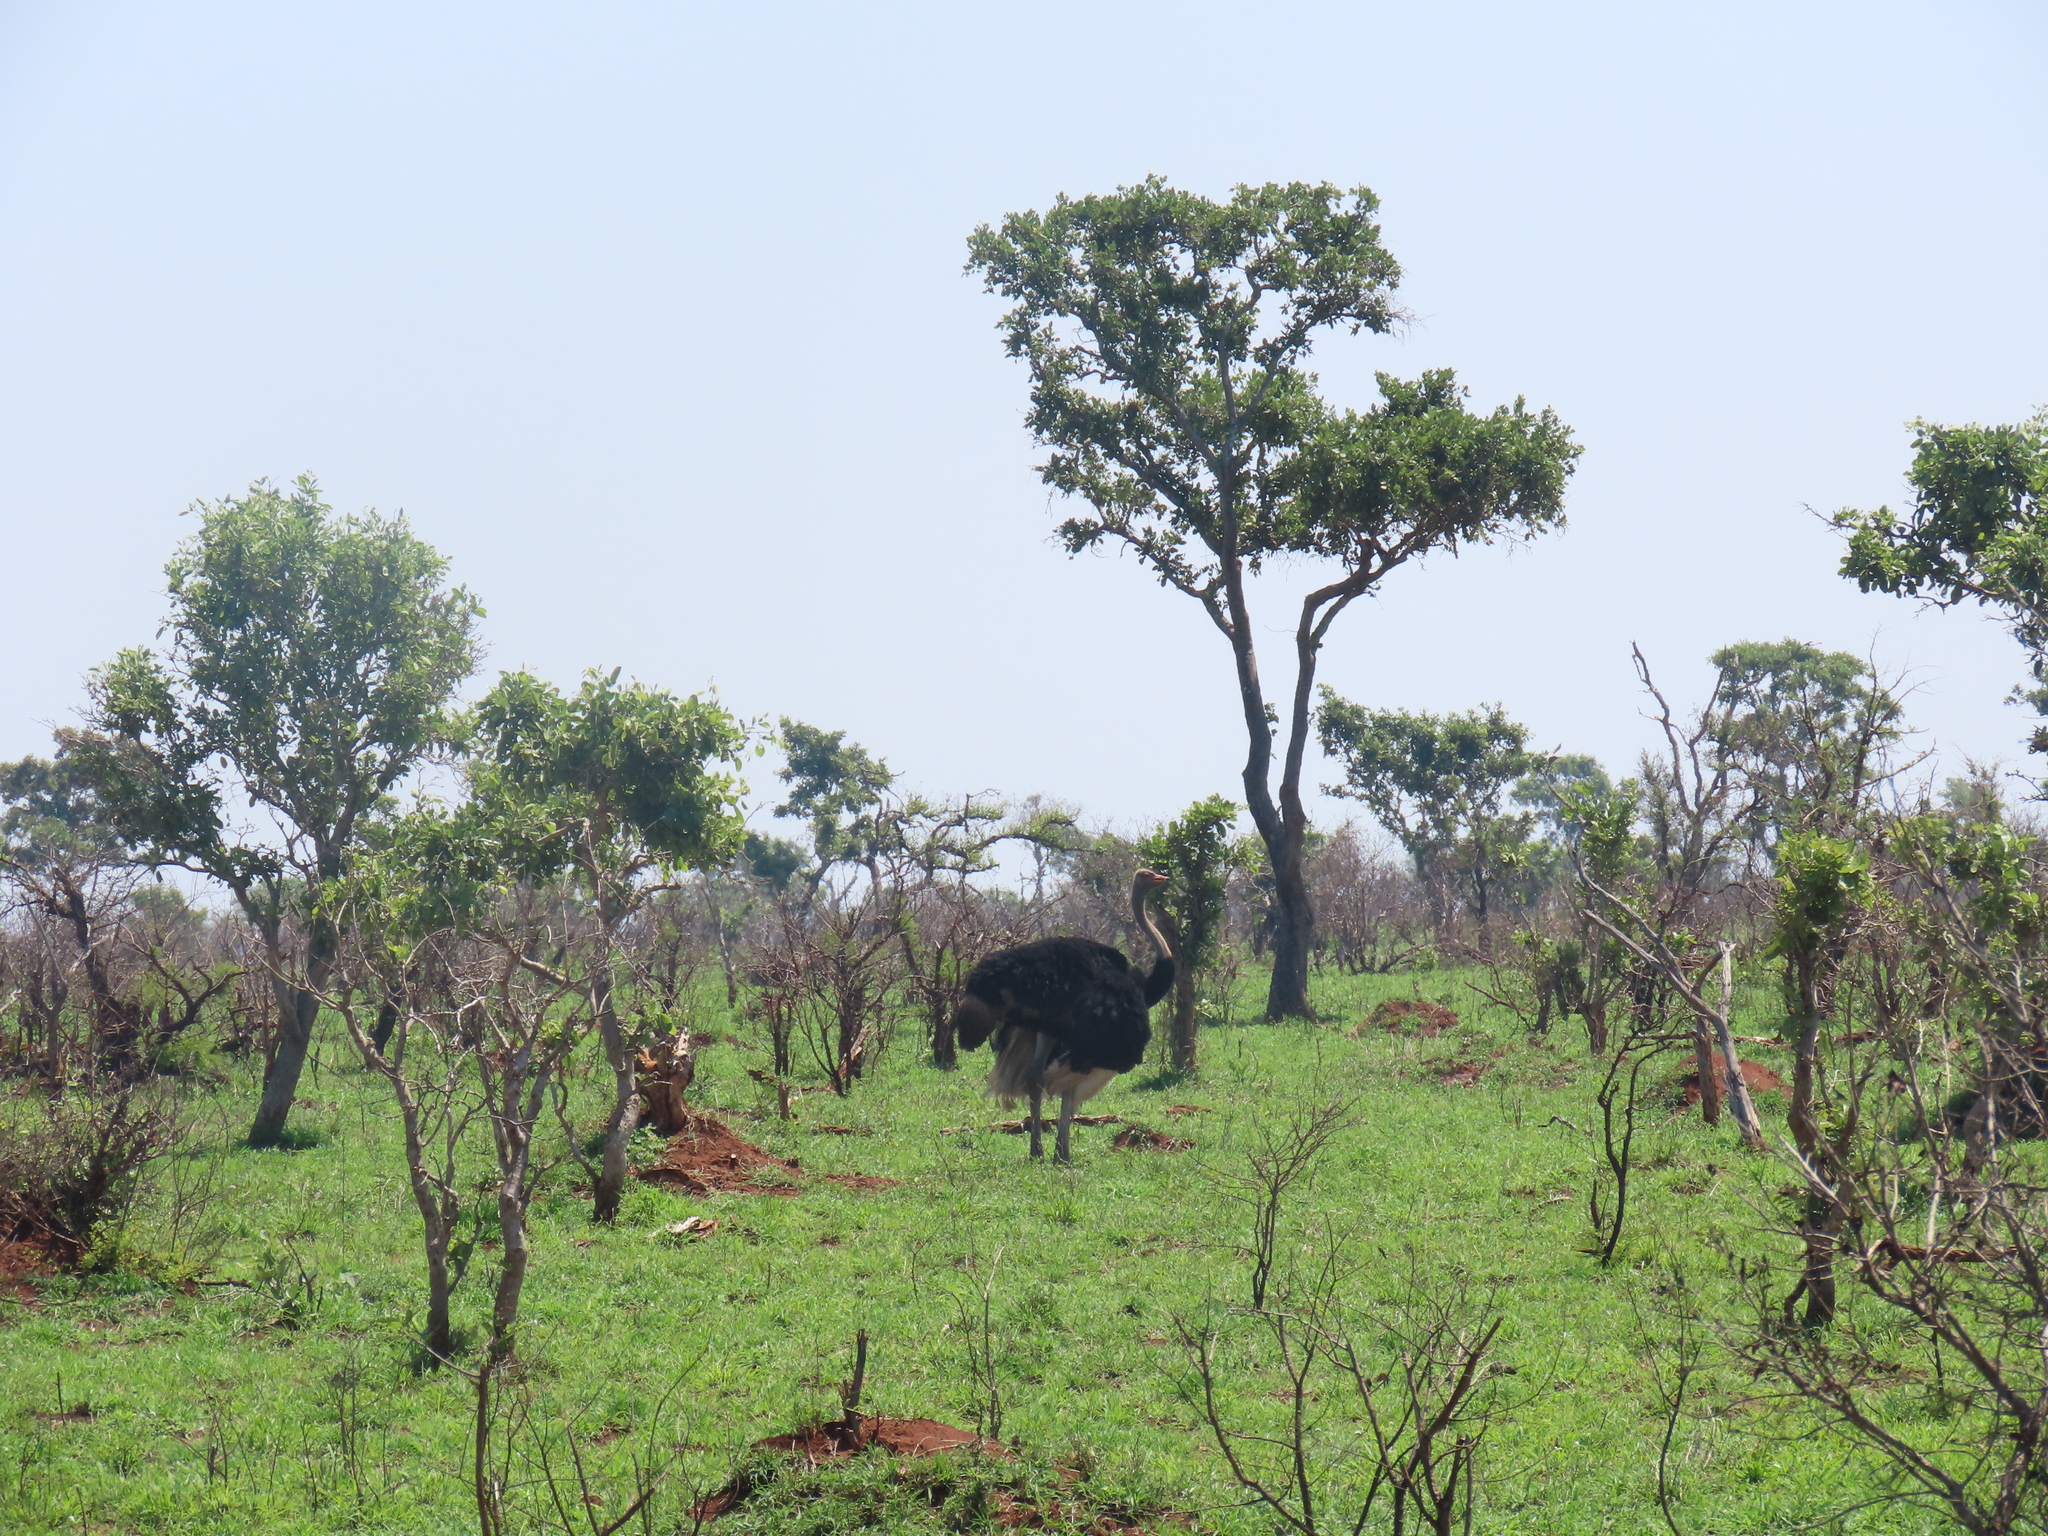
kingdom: Animalia
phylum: Chordata
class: Aves
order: Struthioniformes
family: Struthionidae
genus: Struthio
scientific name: Struthio camelus
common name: Common ostrich
